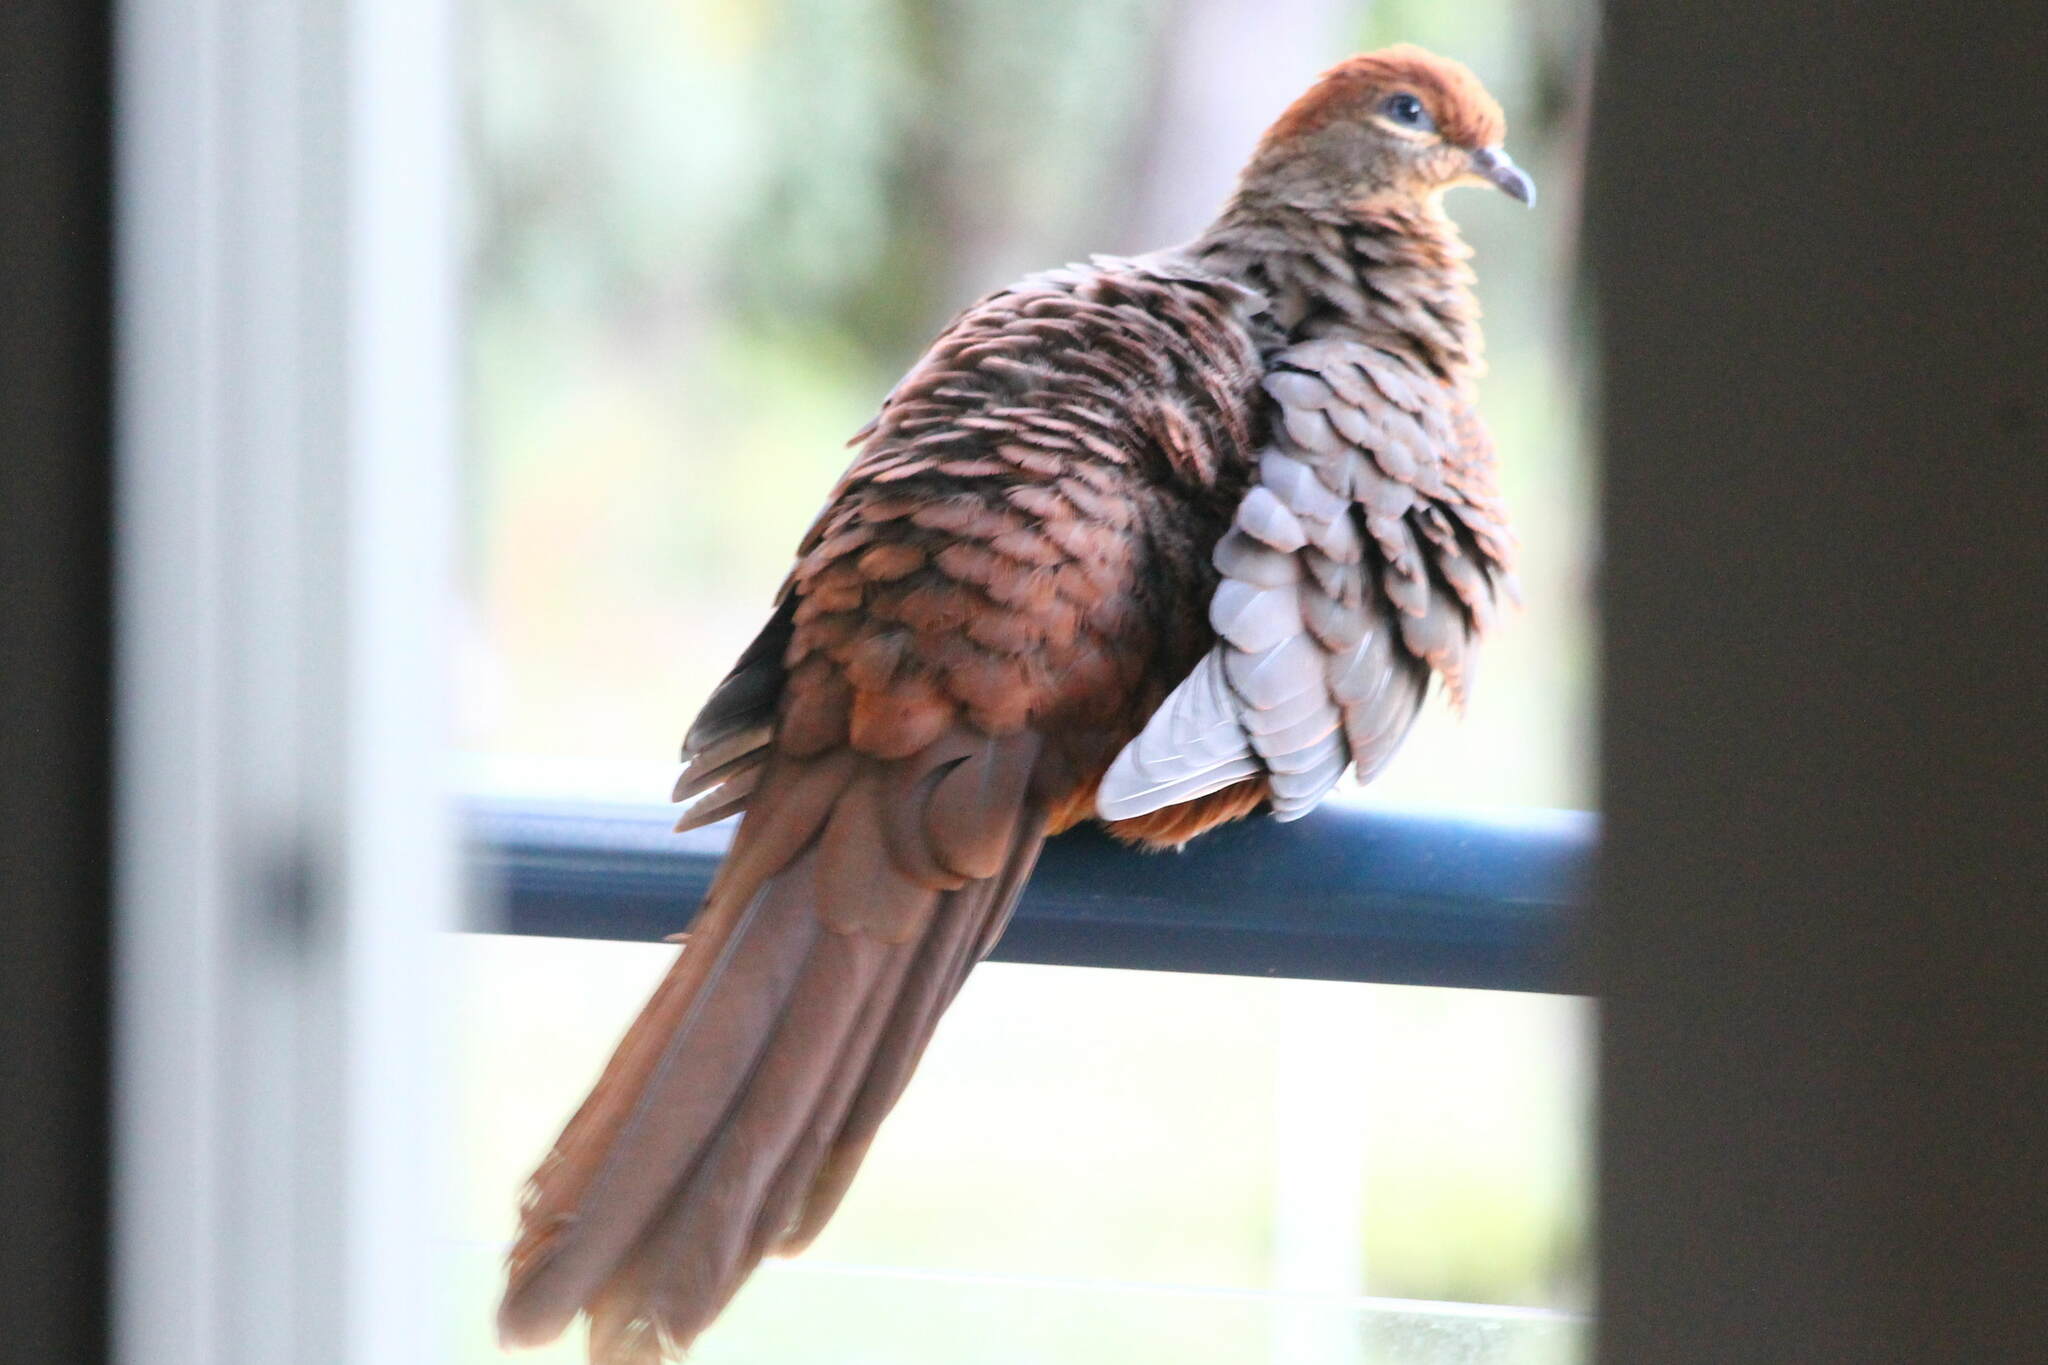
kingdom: Animalia
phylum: Chordata
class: Aves
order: Columbiformes
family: Columbidae
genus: Macropygia
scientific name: Macropygia phasianella
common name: Brown cuckoo-dove
